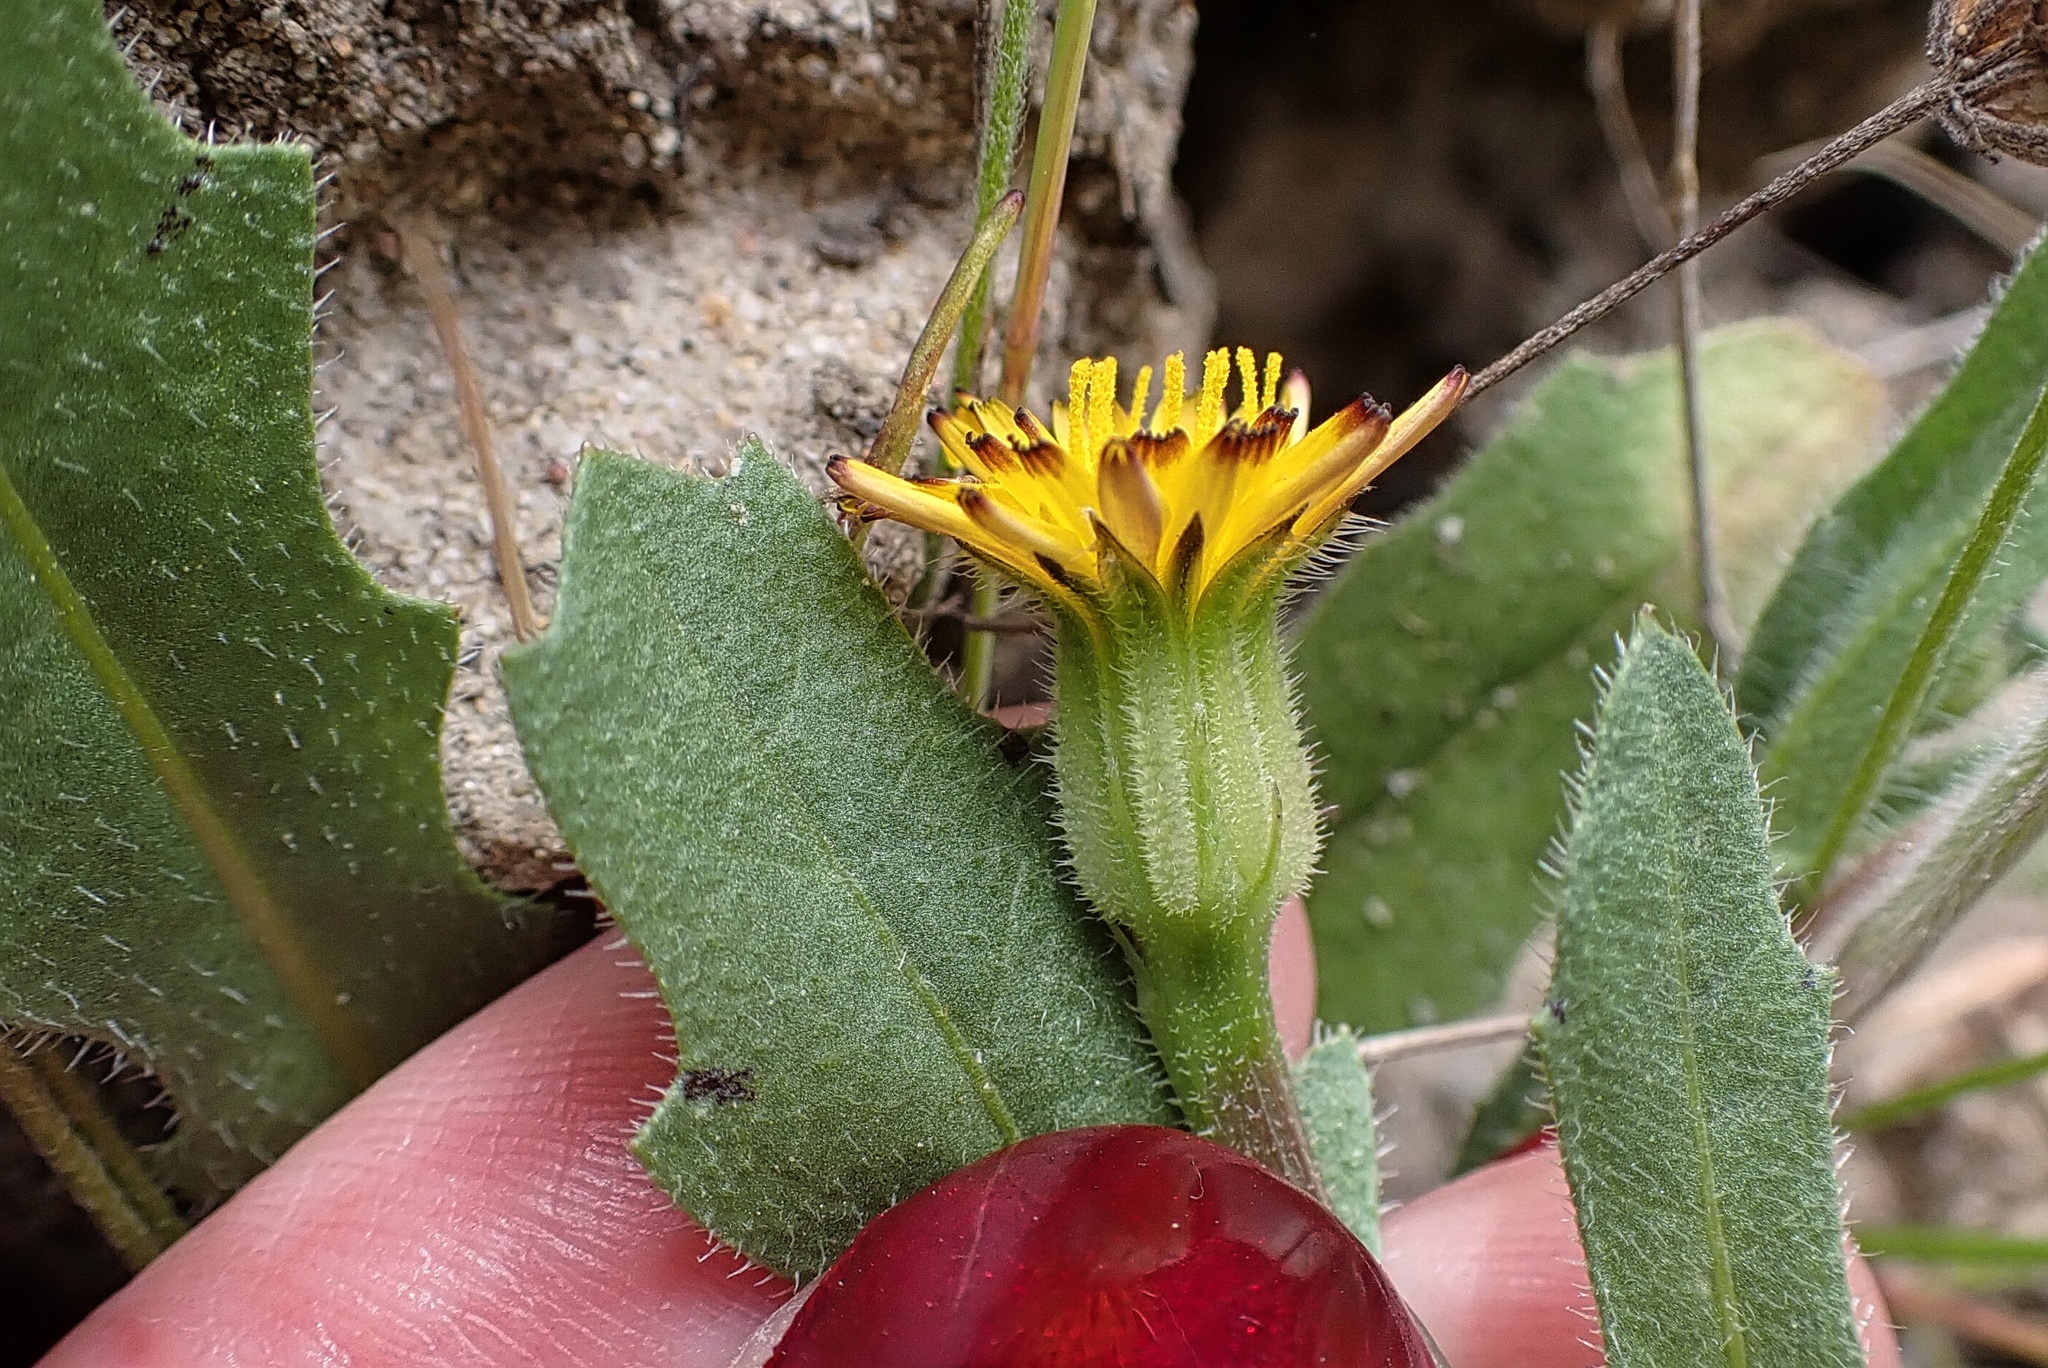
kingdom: Plantae
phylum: Tracheophyta
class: Magnoliopsida
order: Asterales
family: Asteraceae
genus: Hedypnois
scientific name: Hedypnois rhagadioloides
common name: Cretan weed
